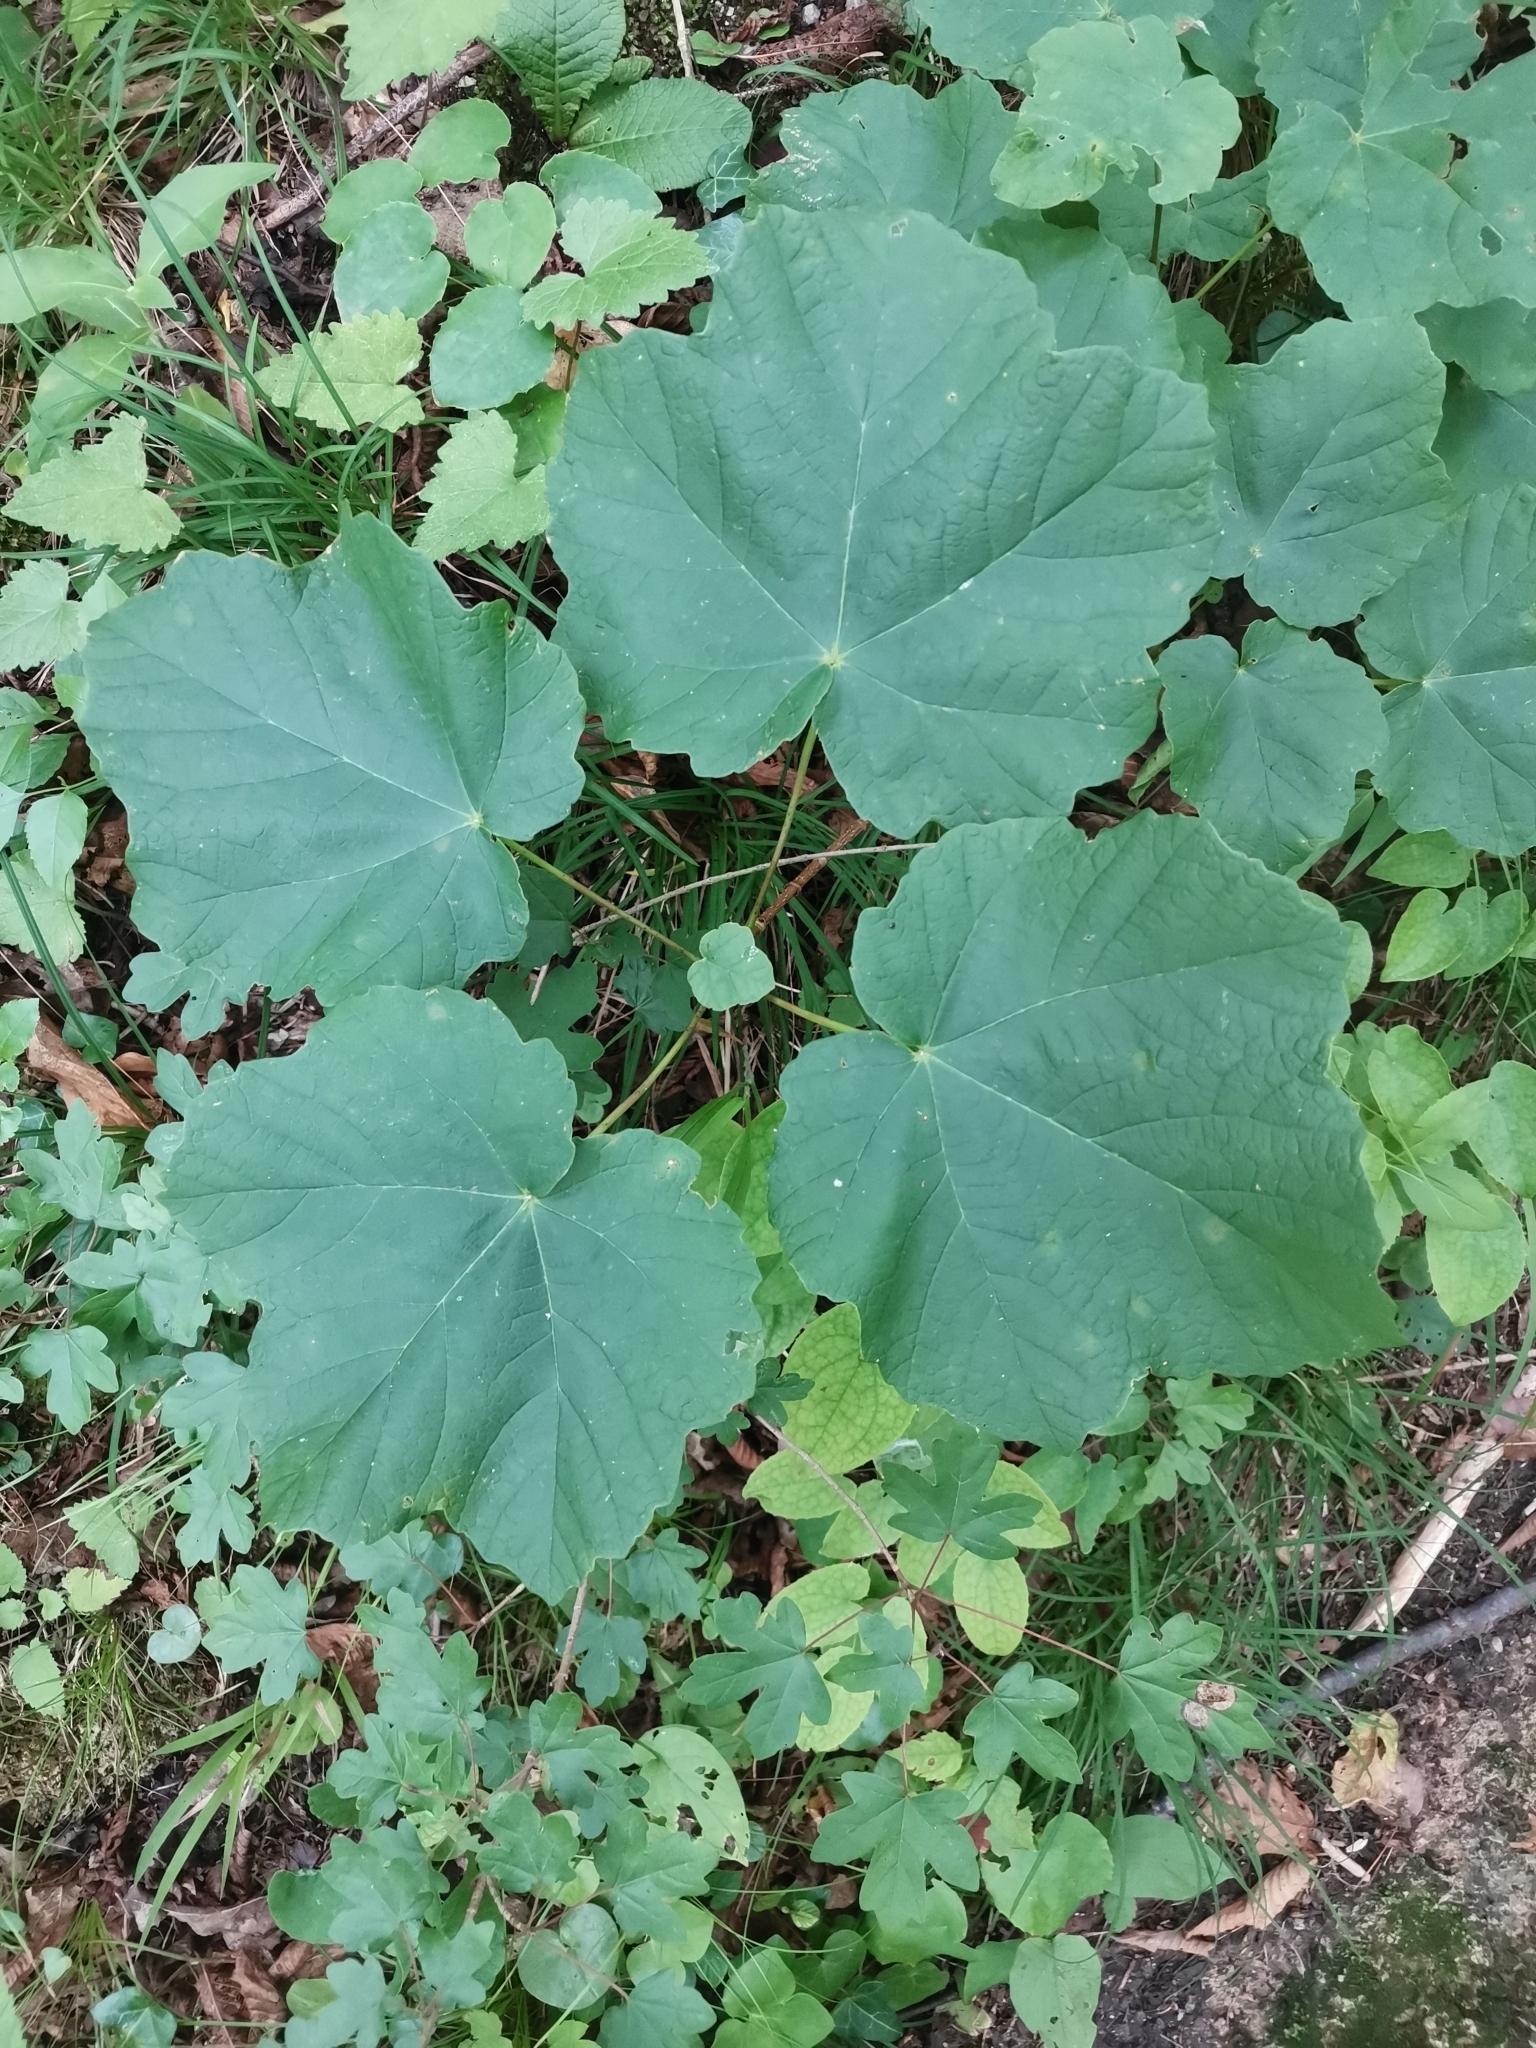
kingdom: Plantae
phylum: Tracheophyta
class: Magnoliopsida
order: Sapindales
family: Sapindaceae
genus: Acer
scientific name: Acer opalus
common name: Italian maple
